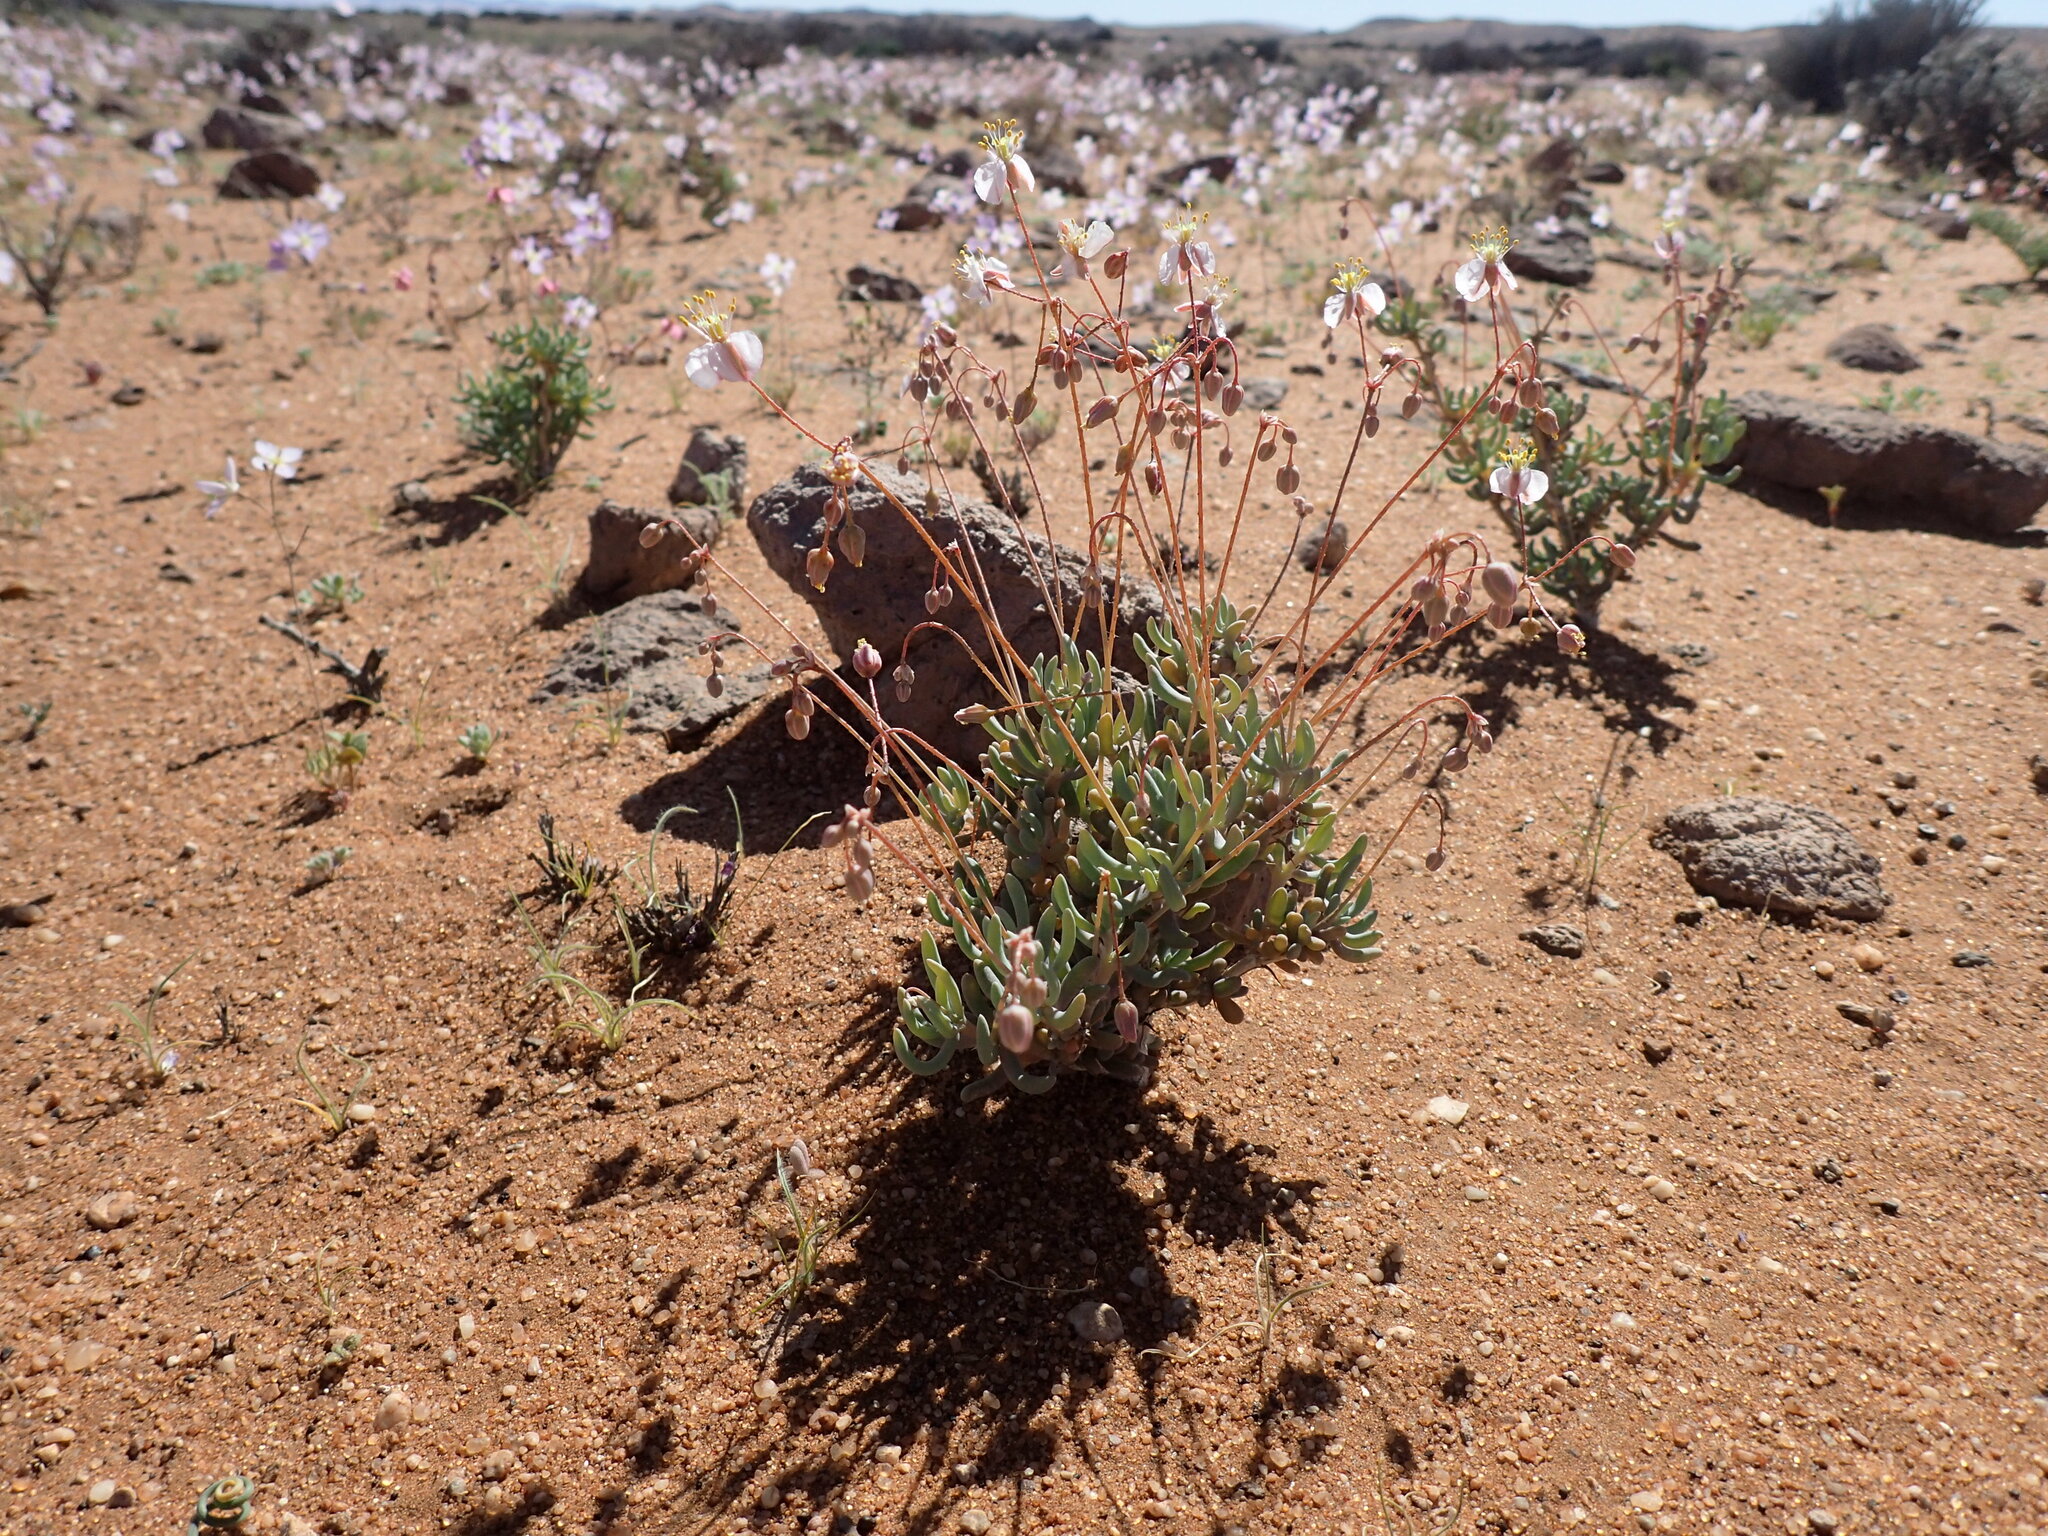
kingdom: Plantae
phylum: Tracheophyta
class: Magnoliopsida
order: Caryophyllales
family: Kewaceae
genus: Kewa
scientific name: Kewa salsoloides
